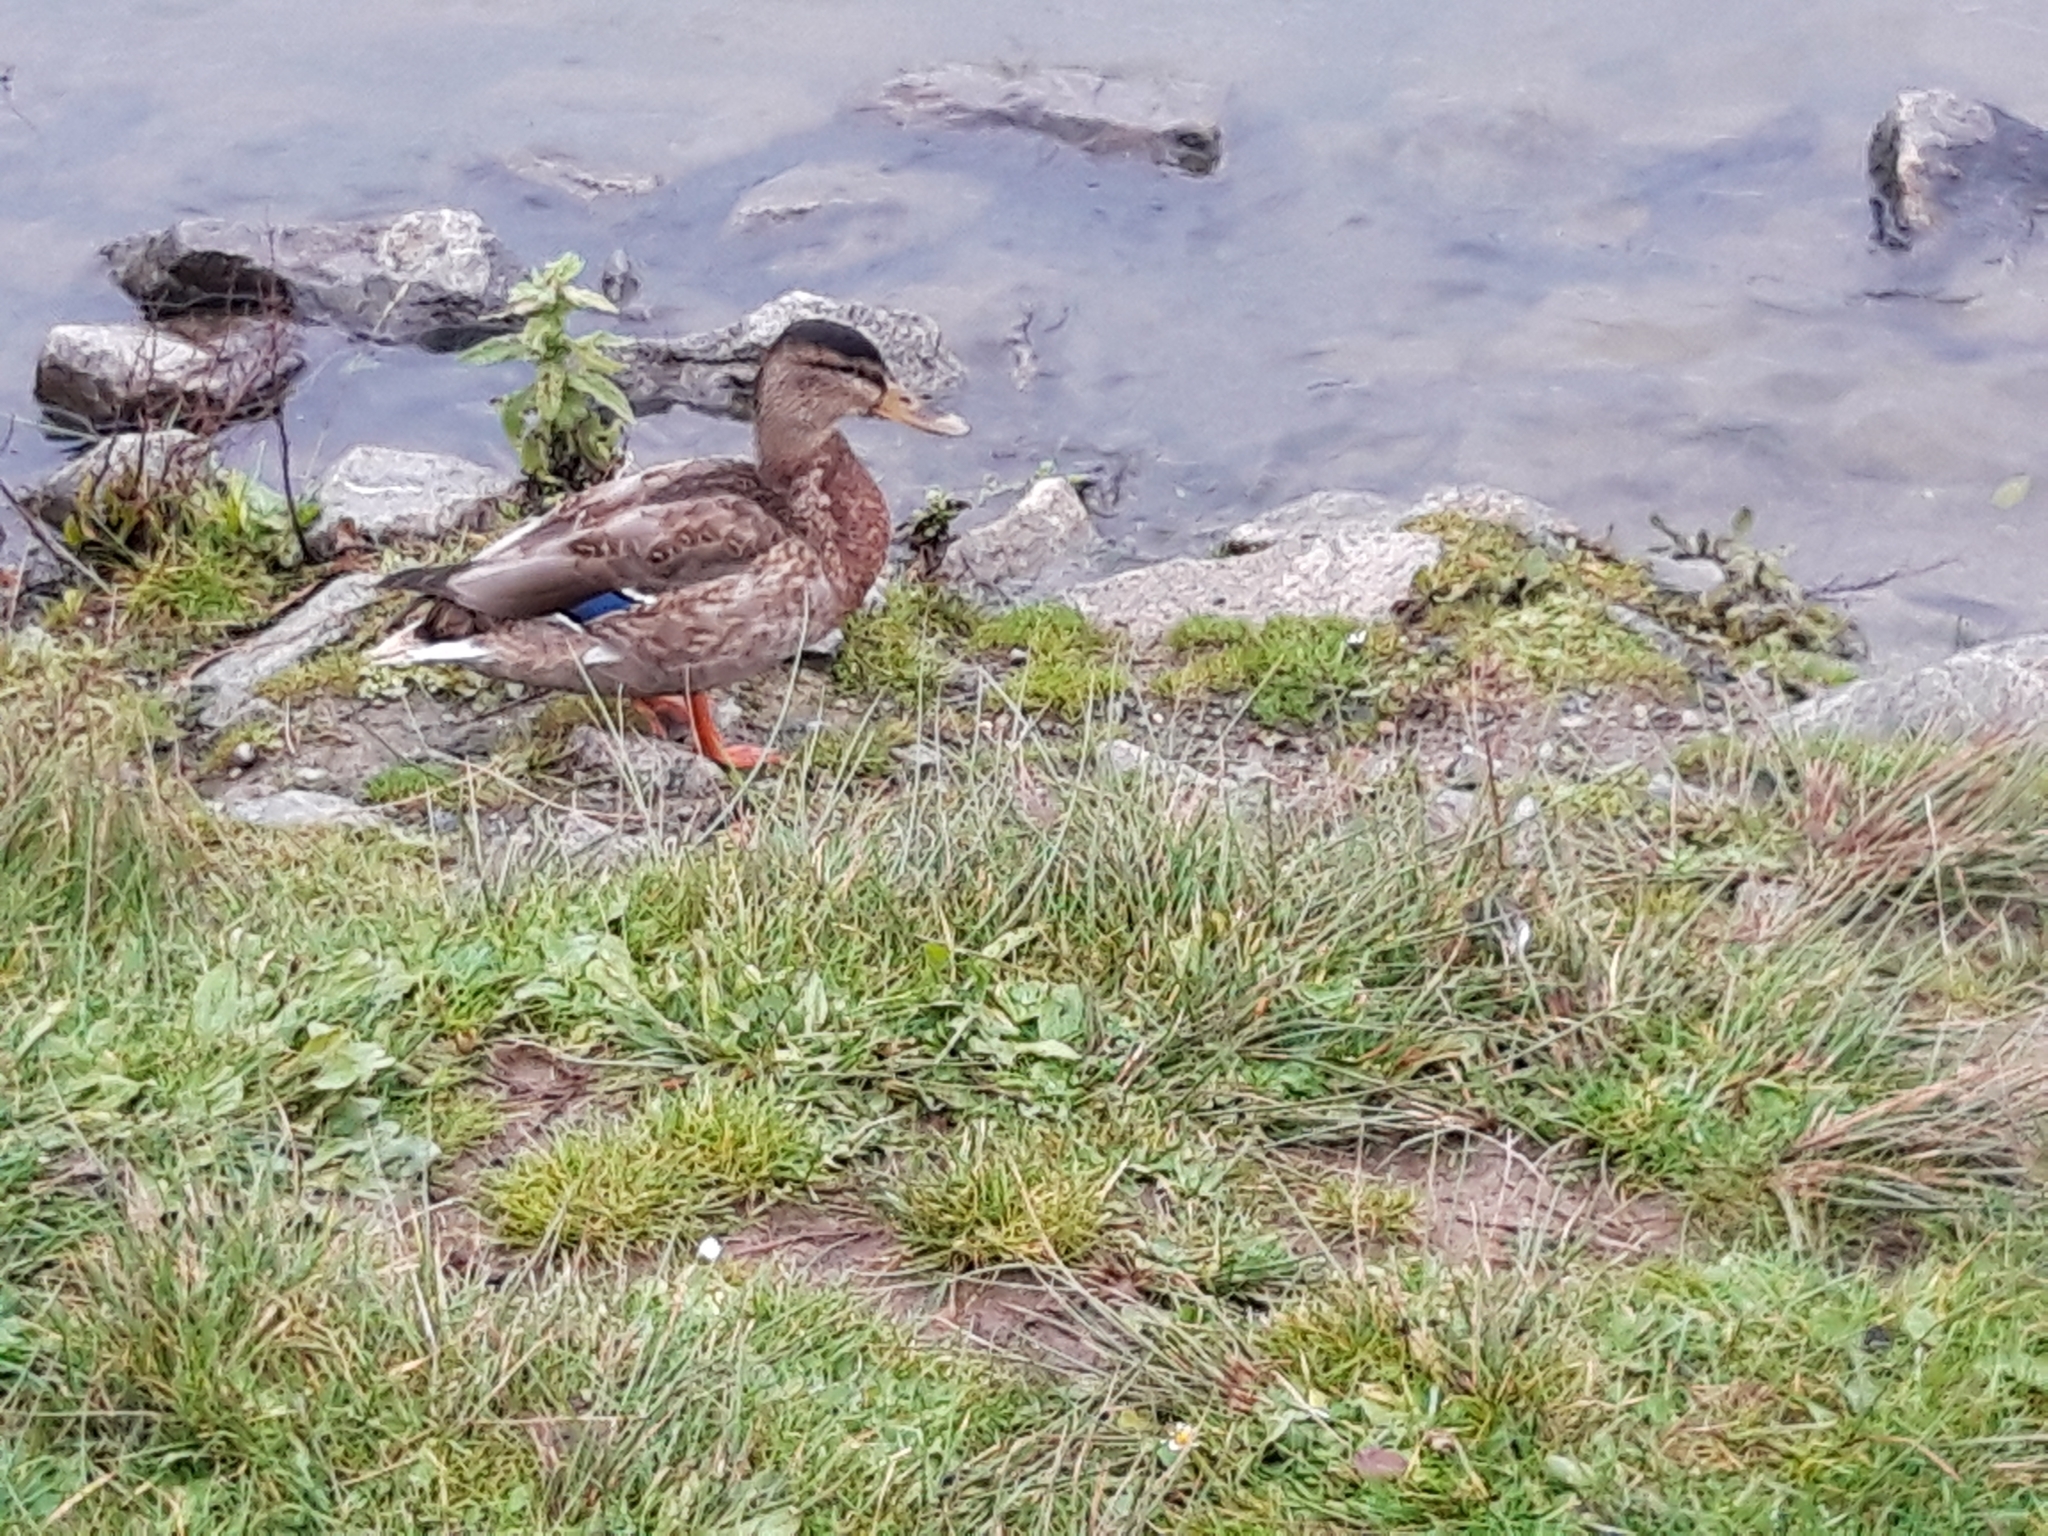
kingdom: Animalia
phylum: Chordata
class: Aves
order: Anseriformes
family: Anatidae
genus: Anas
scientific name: Anas platyrhynchos
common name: Mallard
